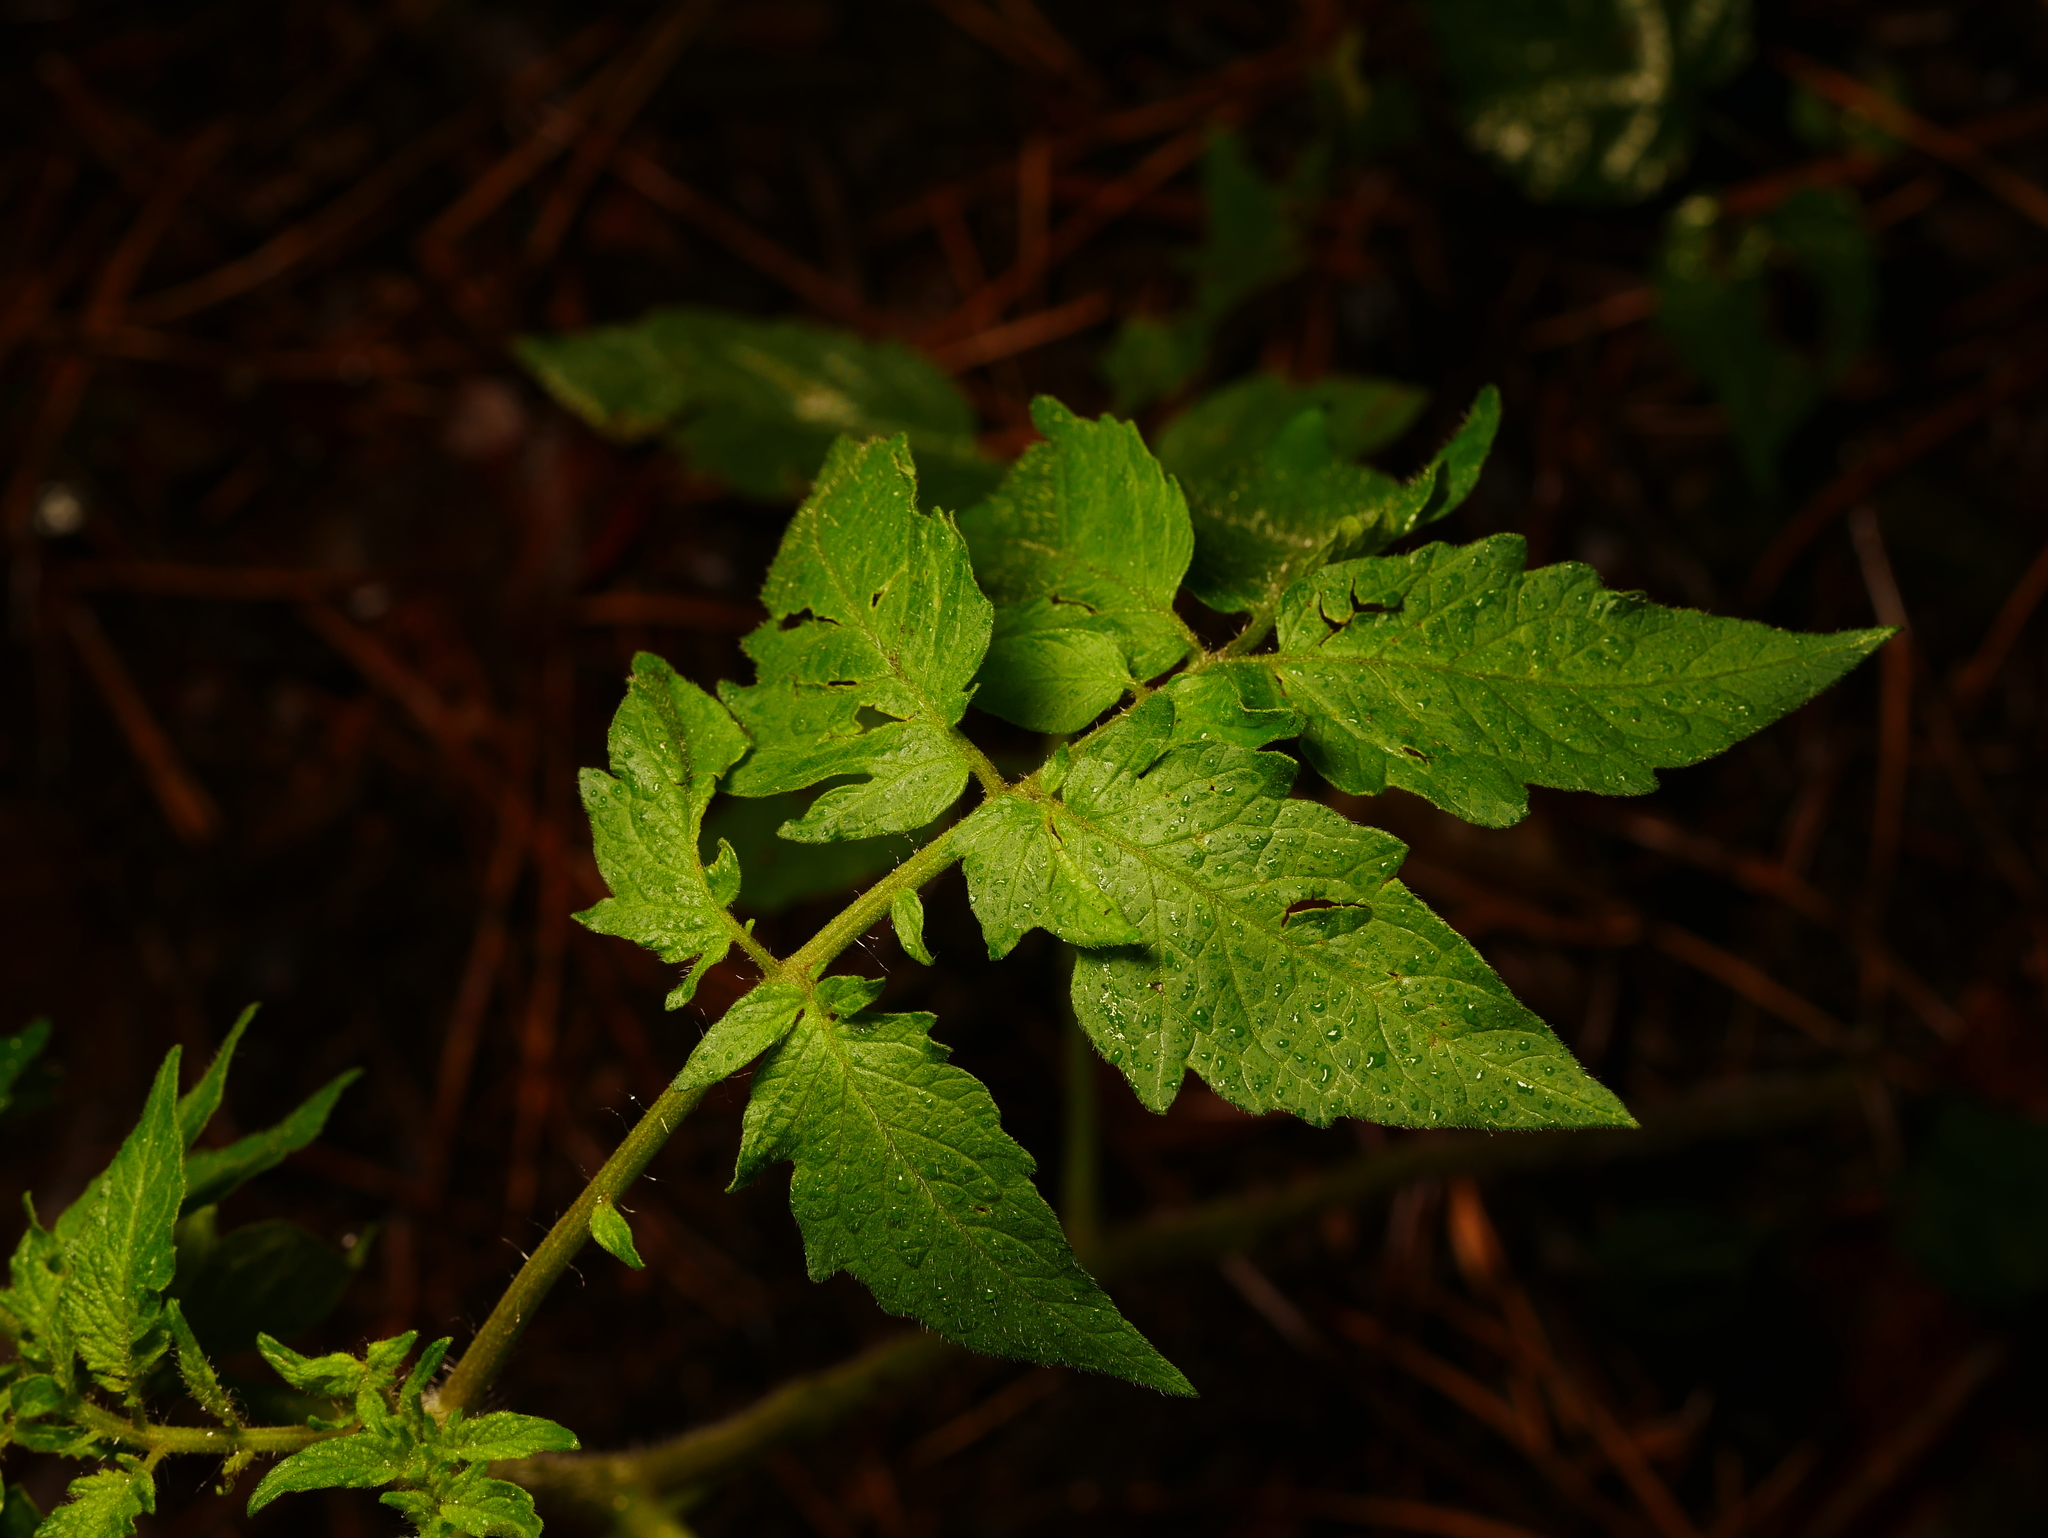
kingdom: Plantae
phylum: Tracheophyta
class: Magnoliopsida
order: Solanales
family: Solanaceae
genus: Solanum
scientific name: Solanum lycopersicum
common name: Garden tomato
